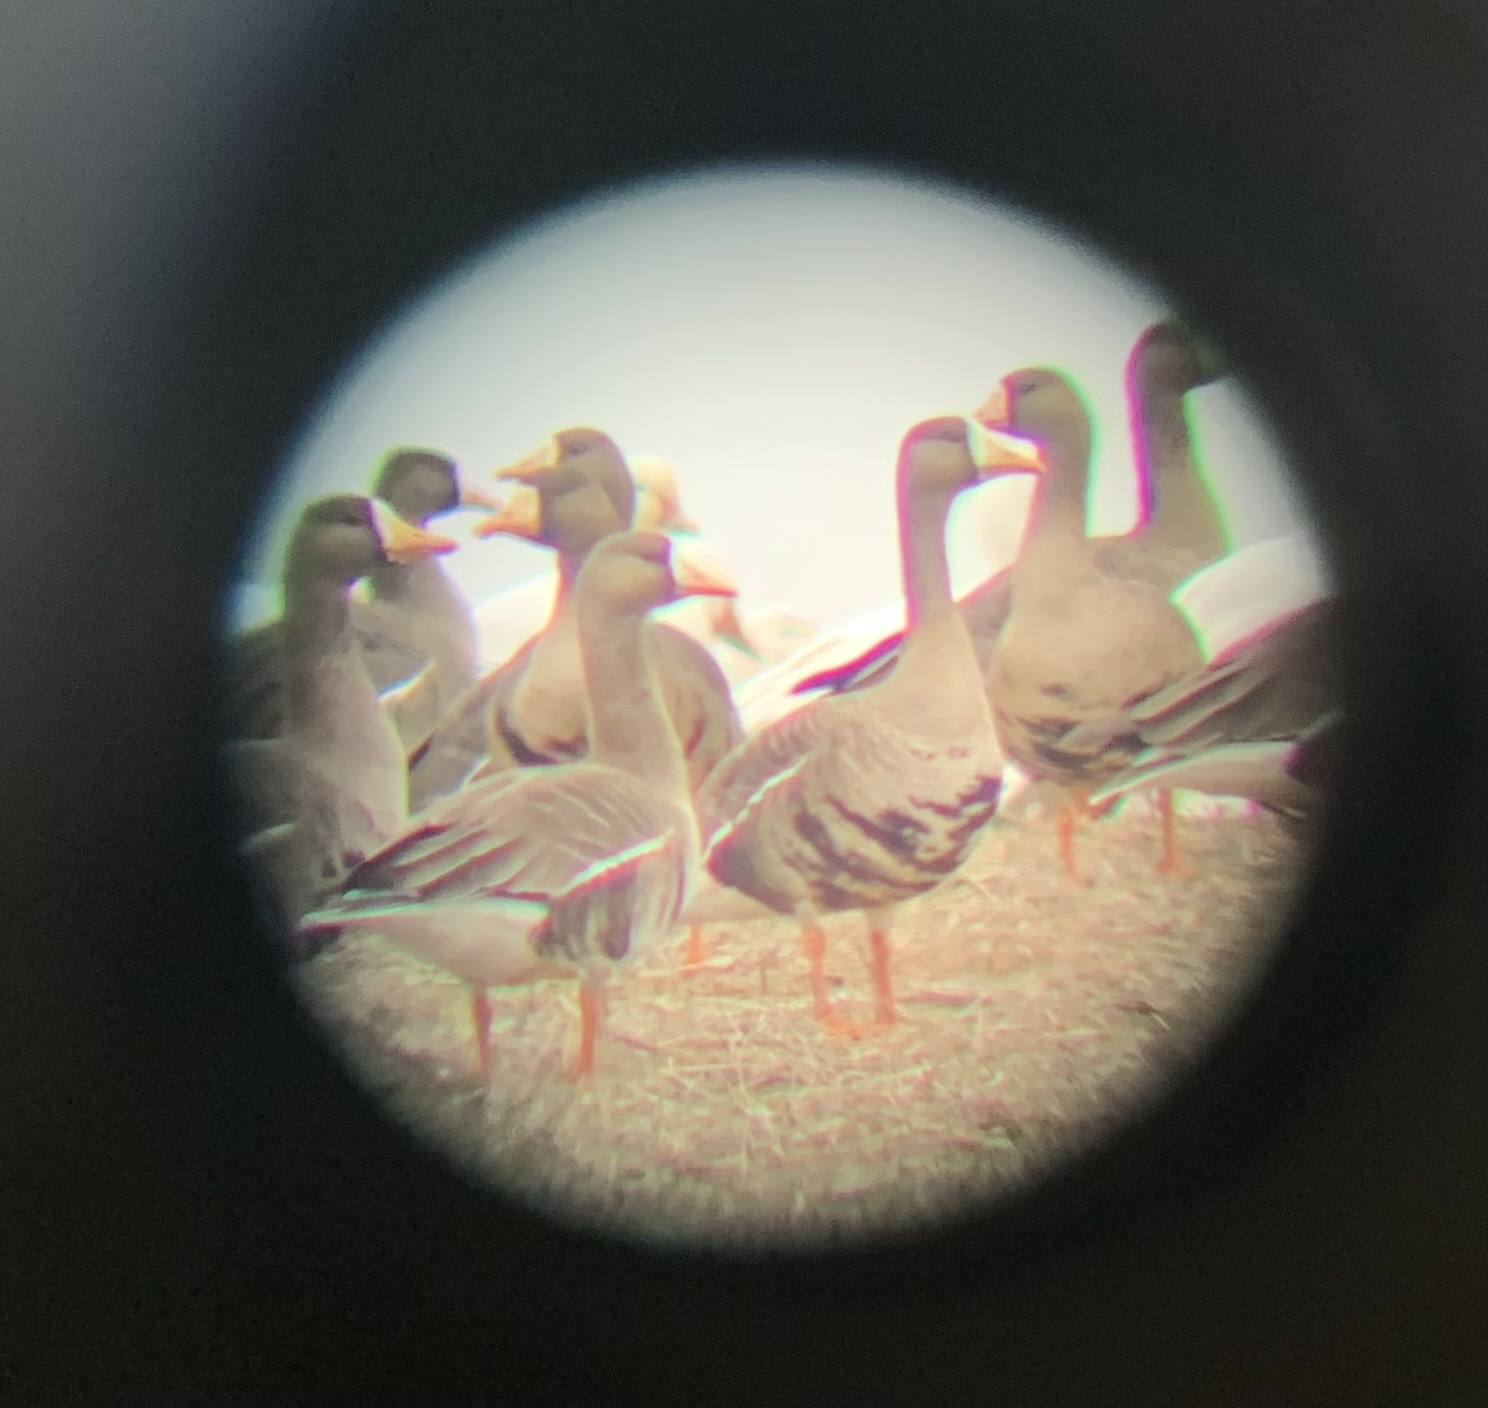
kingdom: Animalia
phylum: Chordata
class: Aves
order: Anseriformes
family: Anatidae
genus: Anser
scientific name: Anser albifrons
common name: Greater white-fronted goose
